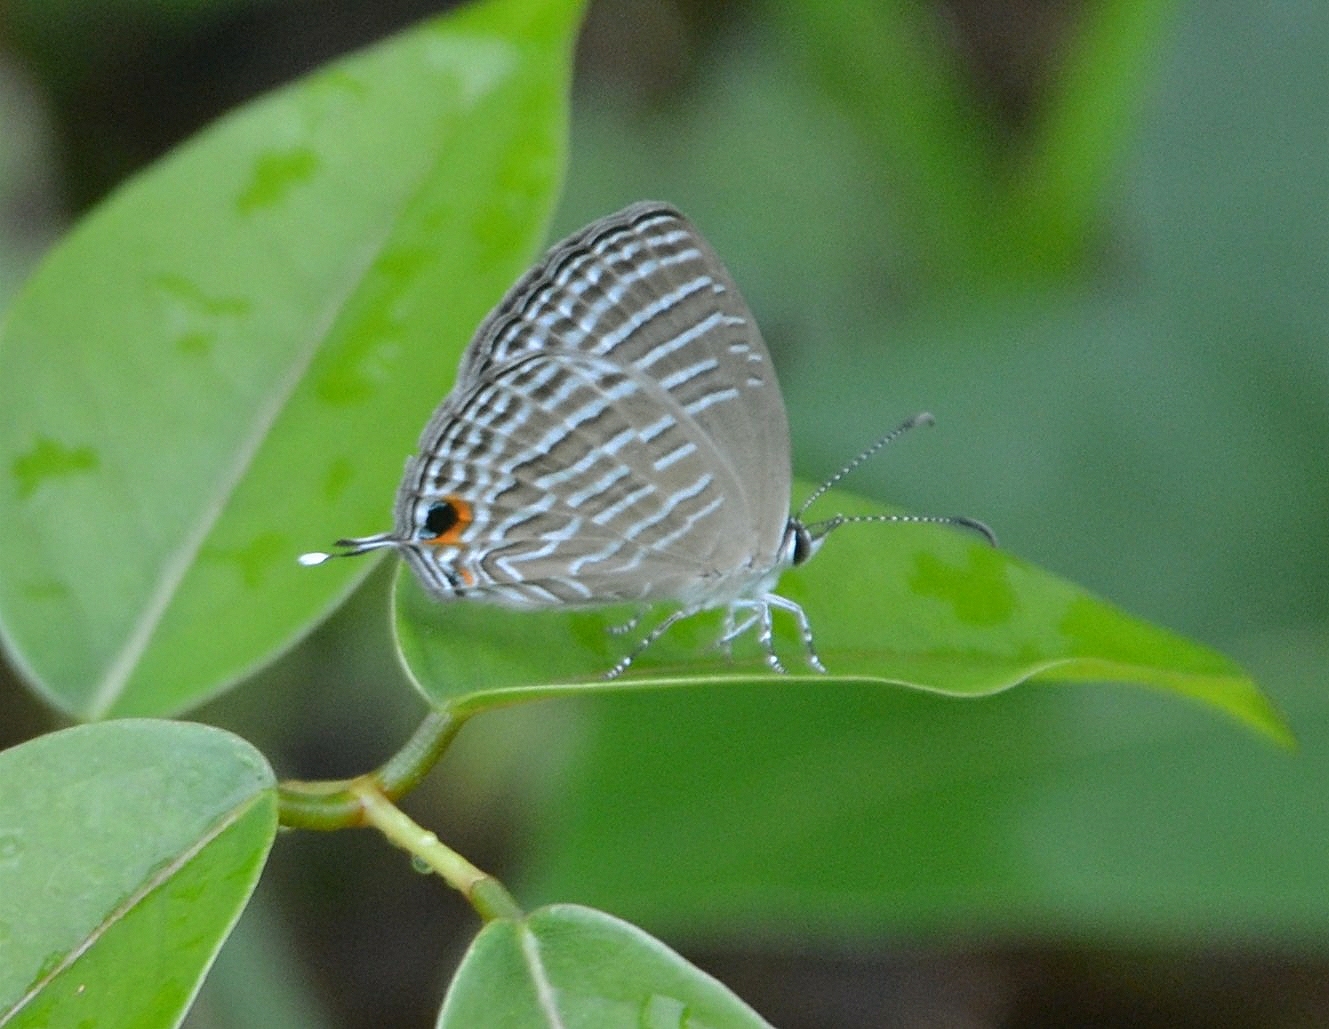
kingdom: Animalia
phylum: Arthropoda
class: Insecta
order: Lepidoptera
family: Lycaenidae
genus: Jamides
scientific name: Jamides celeno
